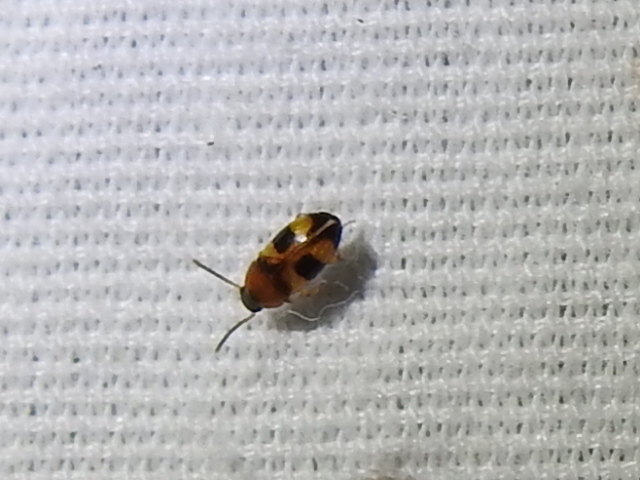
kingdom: Animalia
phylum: Arthropoda
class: Insecta
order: Coleoptera
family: Tenebrionidae
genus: Poecilocrypticus
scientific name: Poecilocrypticus formicophilus
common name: Darkling beetle
